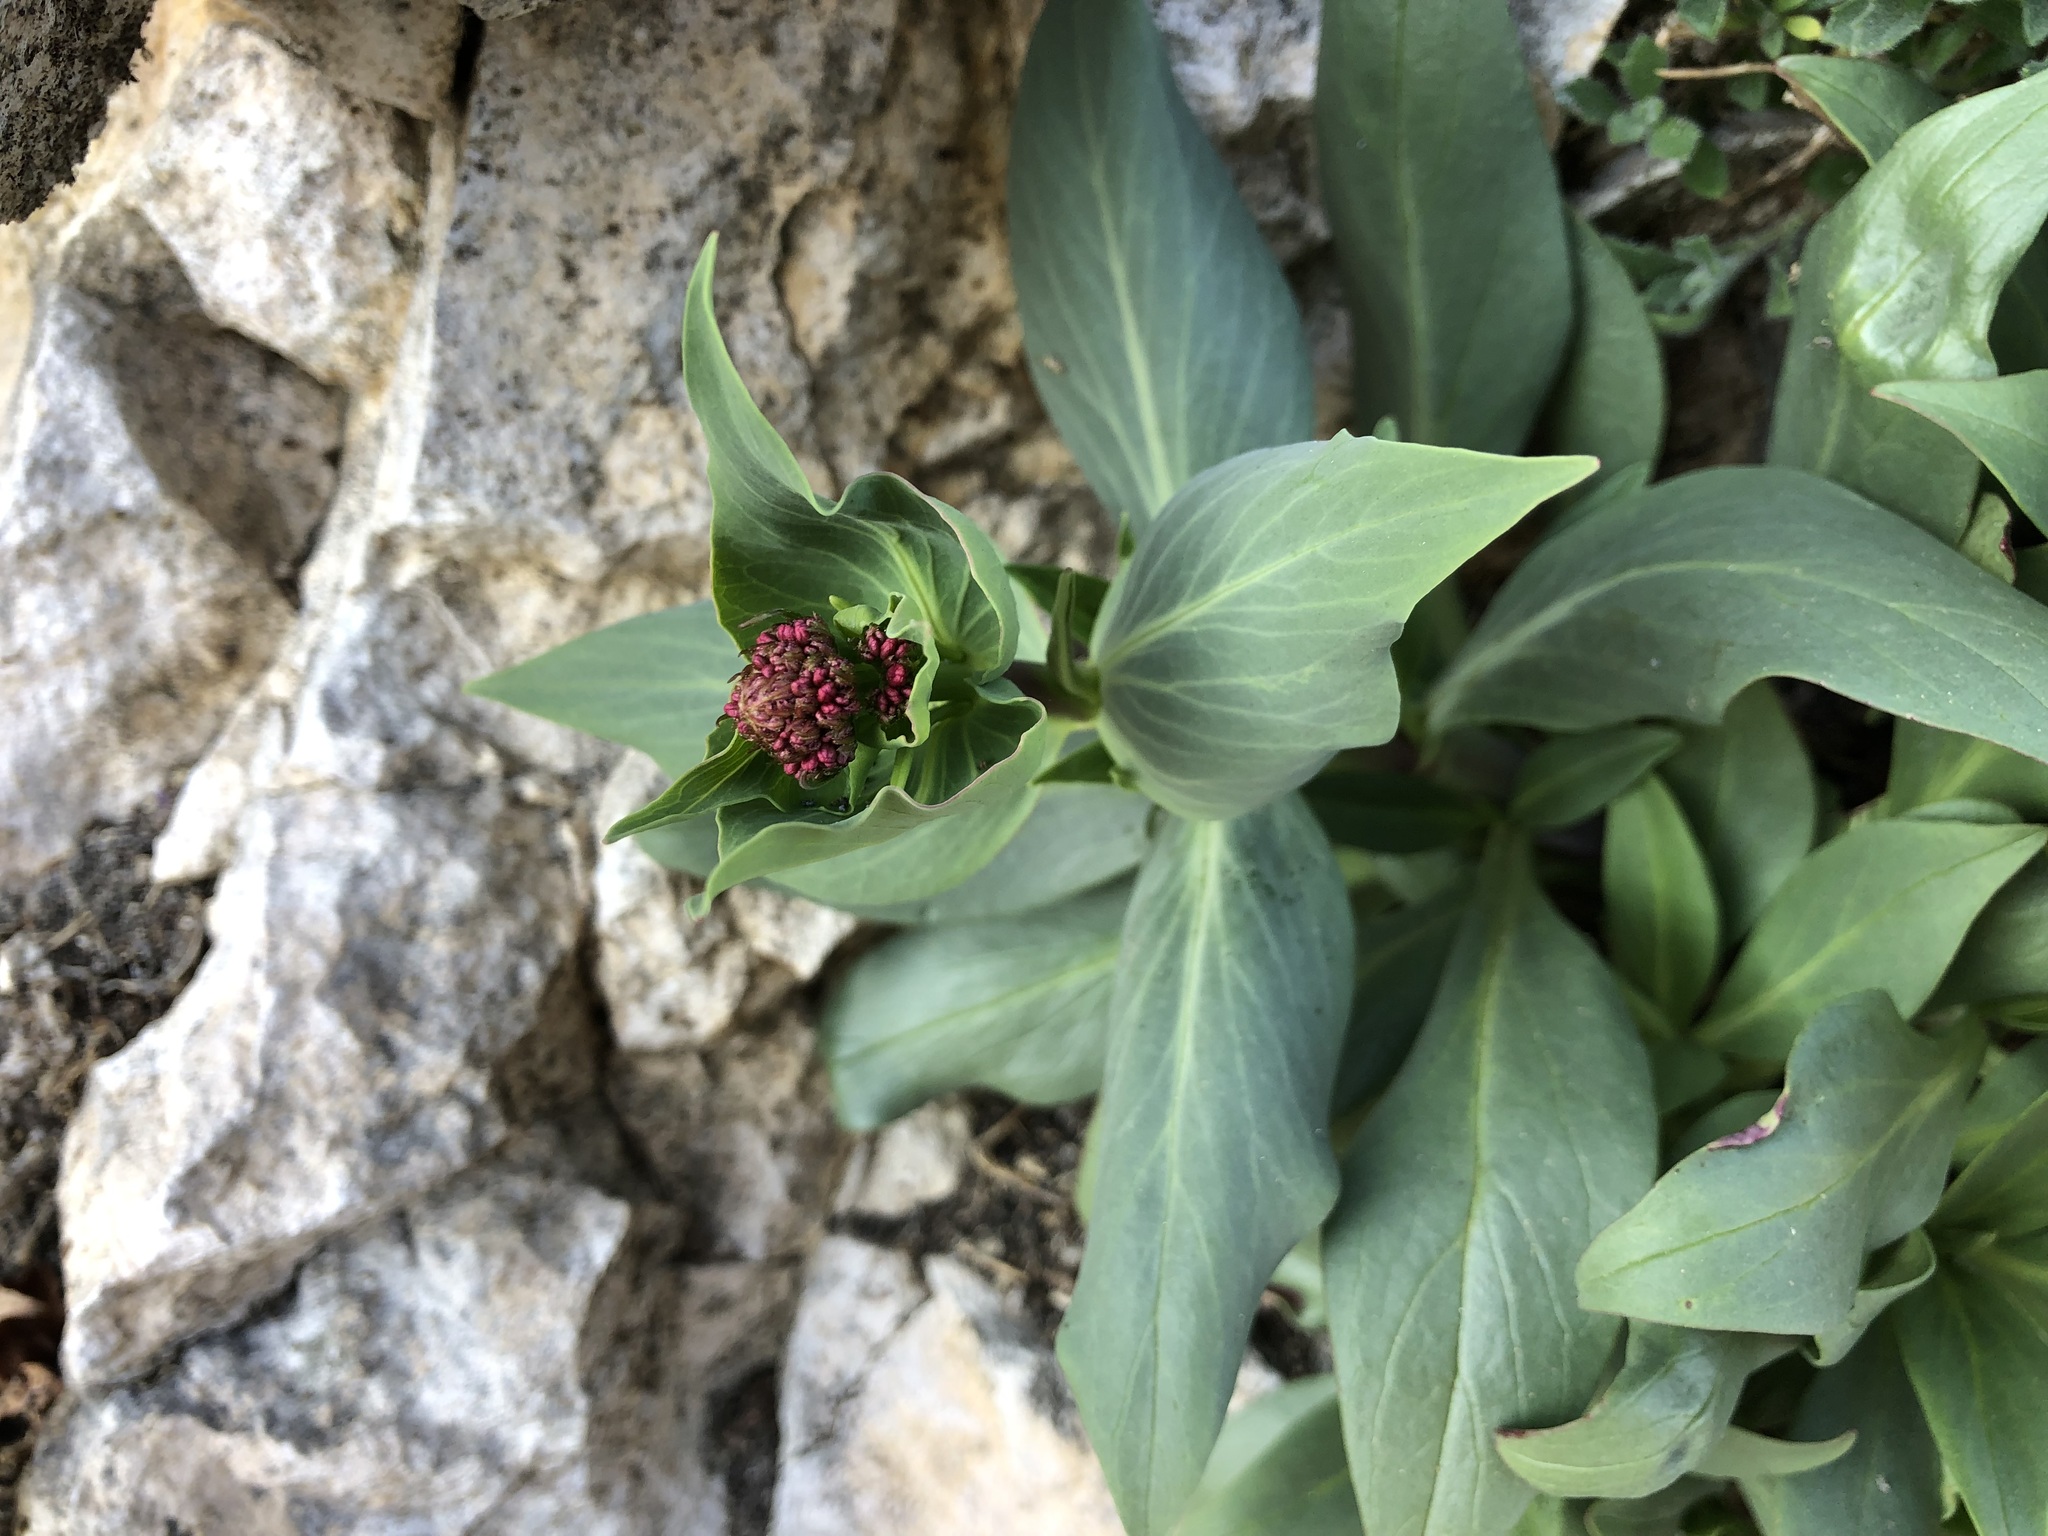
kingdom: Plantae
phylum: Tracheophyta
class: Magnoliopsida
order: Dipsacales
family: Caprifoliaceae
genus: Centranthus
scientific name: Centranthus ruber
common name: Red valerian
